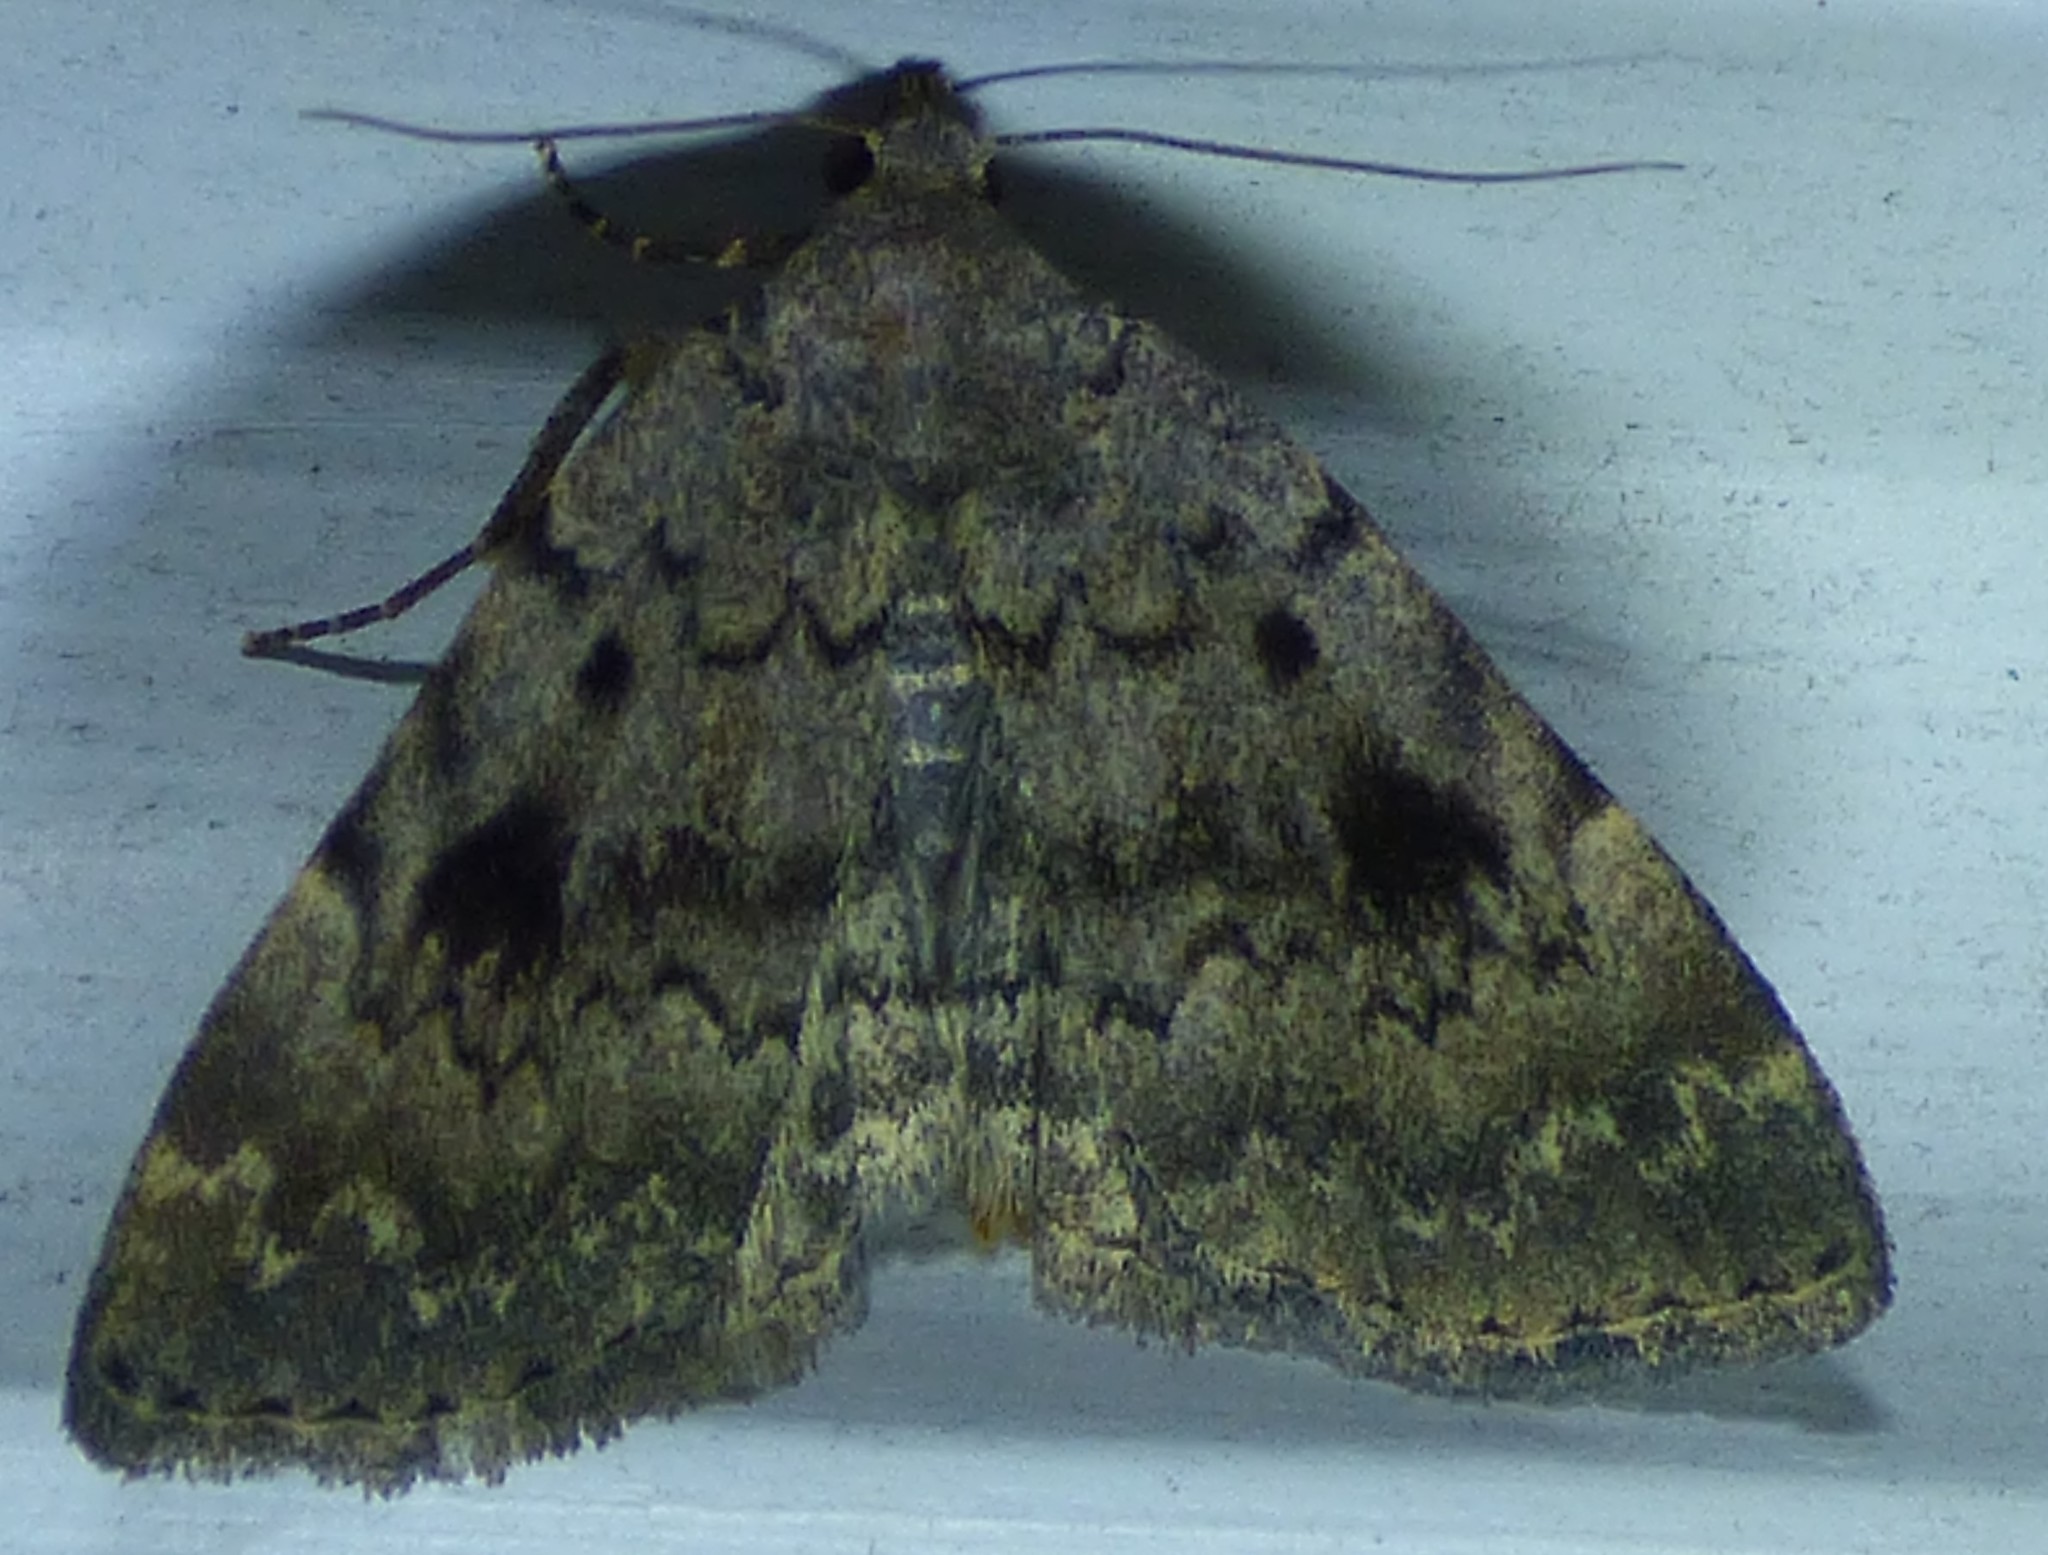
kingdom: Animalia
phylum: Arthropoda
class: Insecta
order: Lepidoptera
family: Erebidae
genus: Idia
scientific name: Idia aemula
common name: Common idia moth
